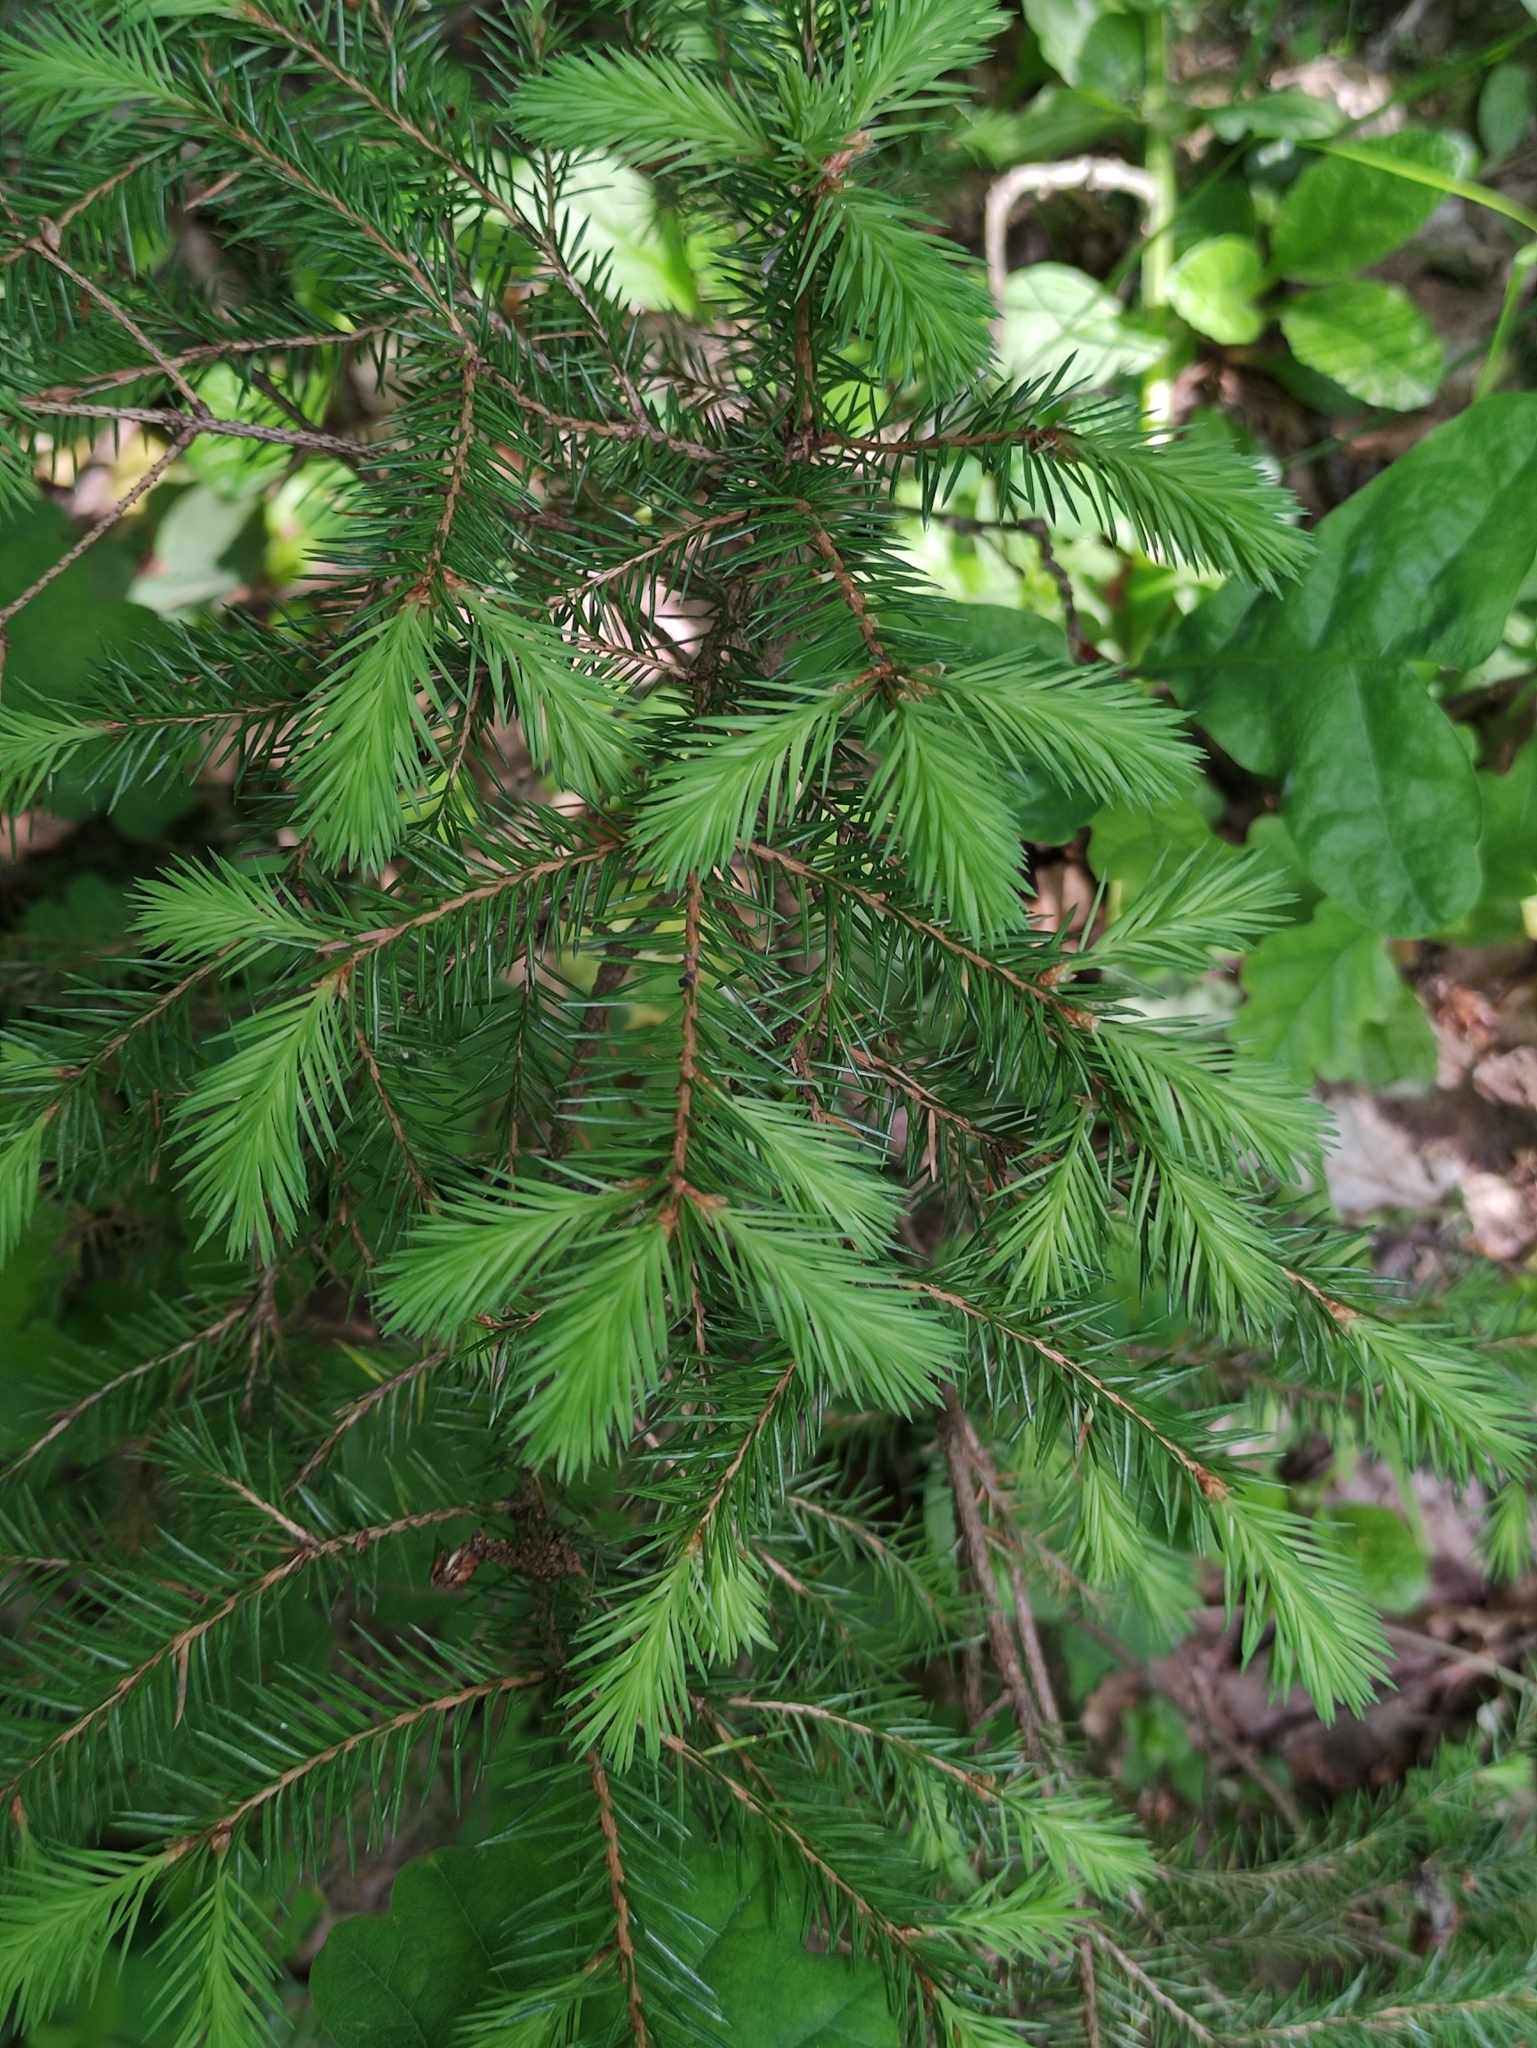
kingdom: Plantae
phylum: Tracheophyta
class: Pinopsida
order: Pinales
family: Pinaceae
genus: Picea
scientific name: Picea abies
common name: Norway spruce
